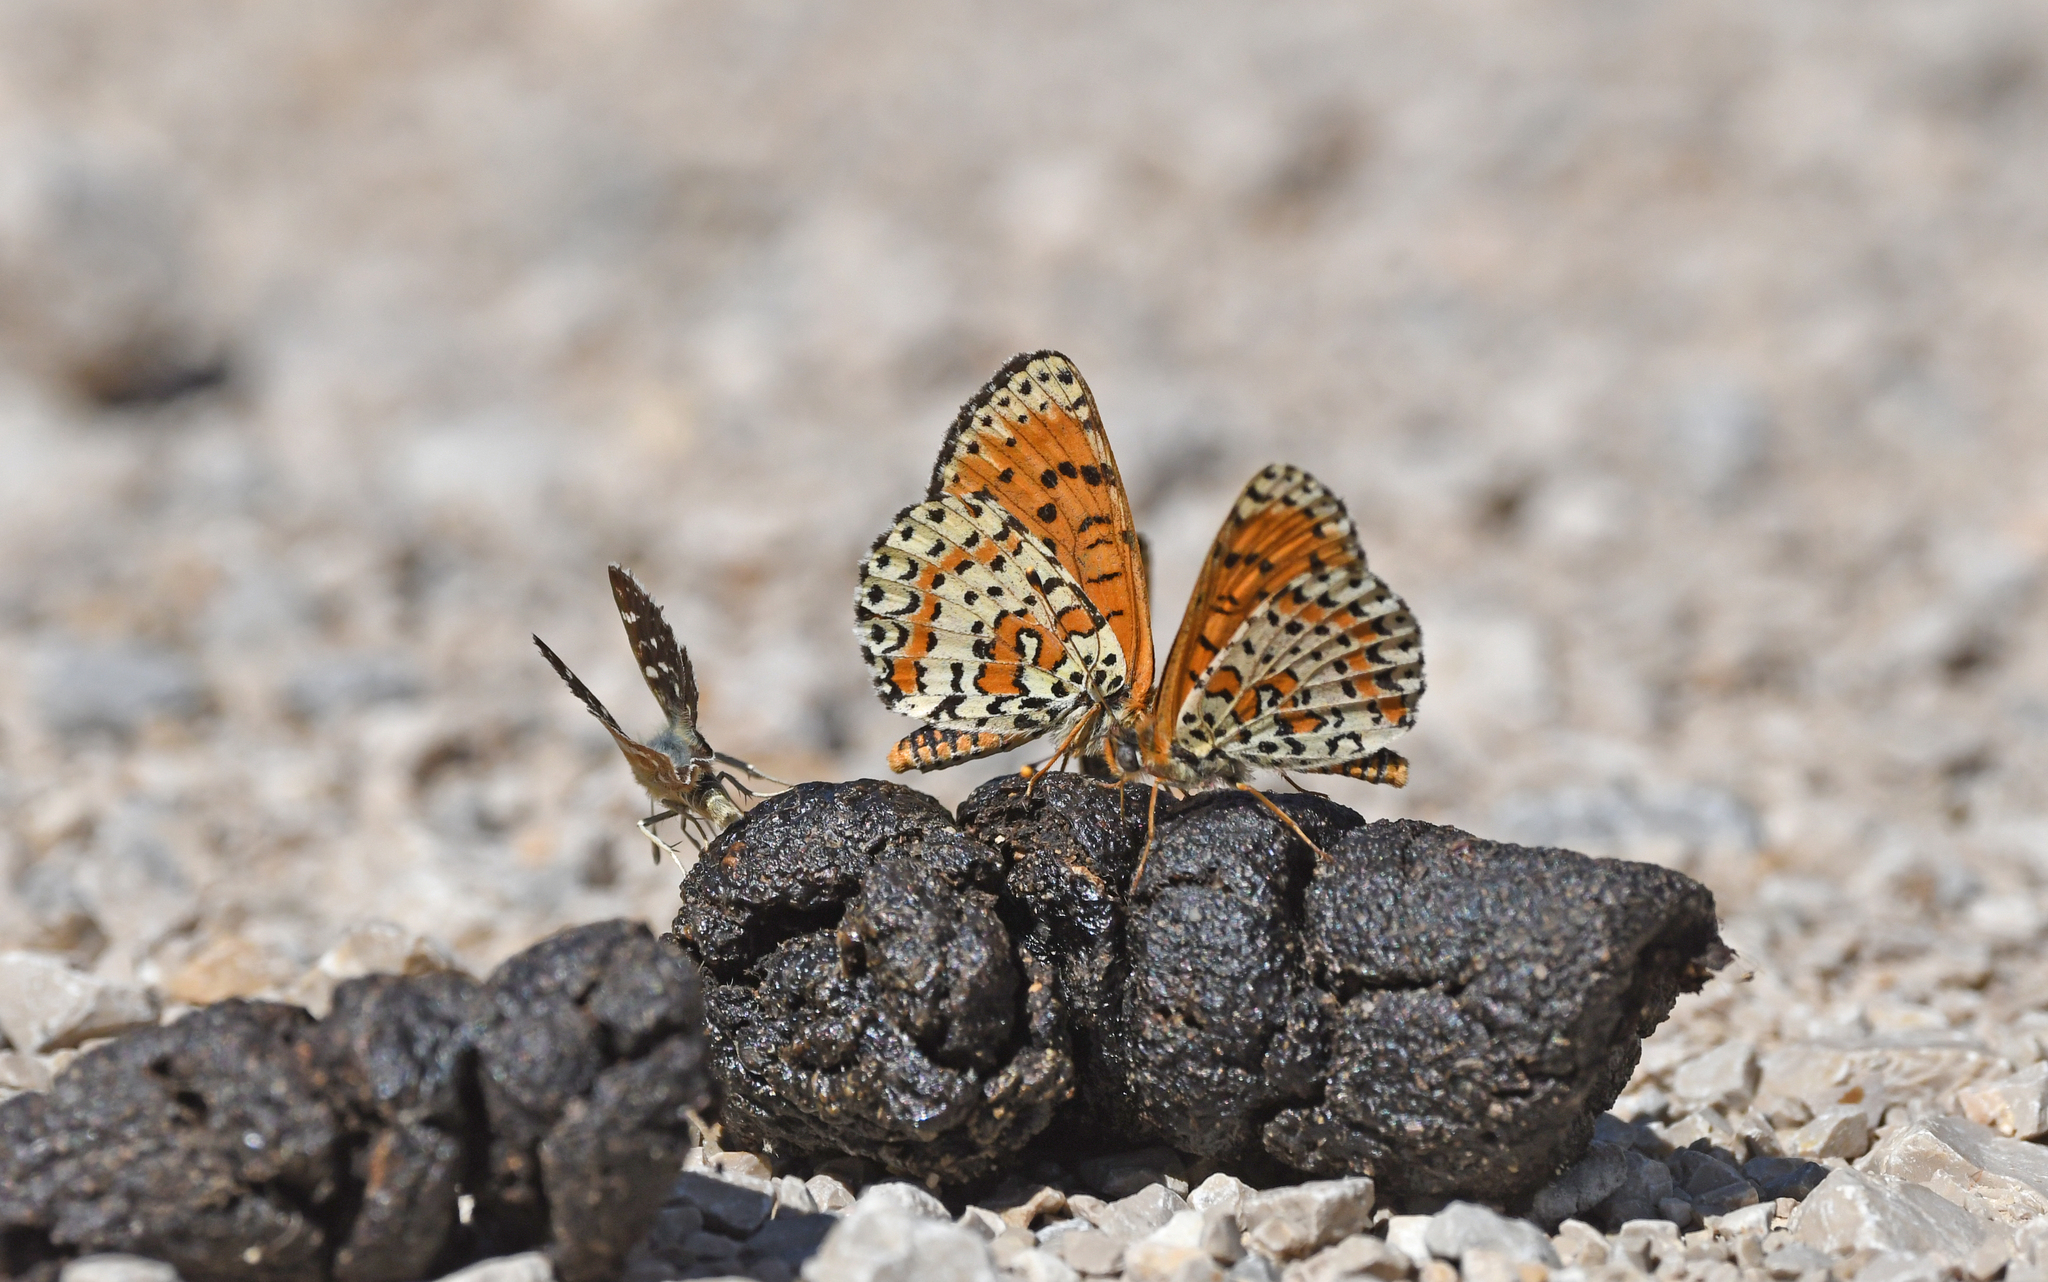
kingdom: Animalia
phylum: Arthropoda
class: Insecta
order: Lepidoptera
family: Hesperiidae
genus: Spialia
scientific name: Spialia sertorius
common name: Red underwing skipper
